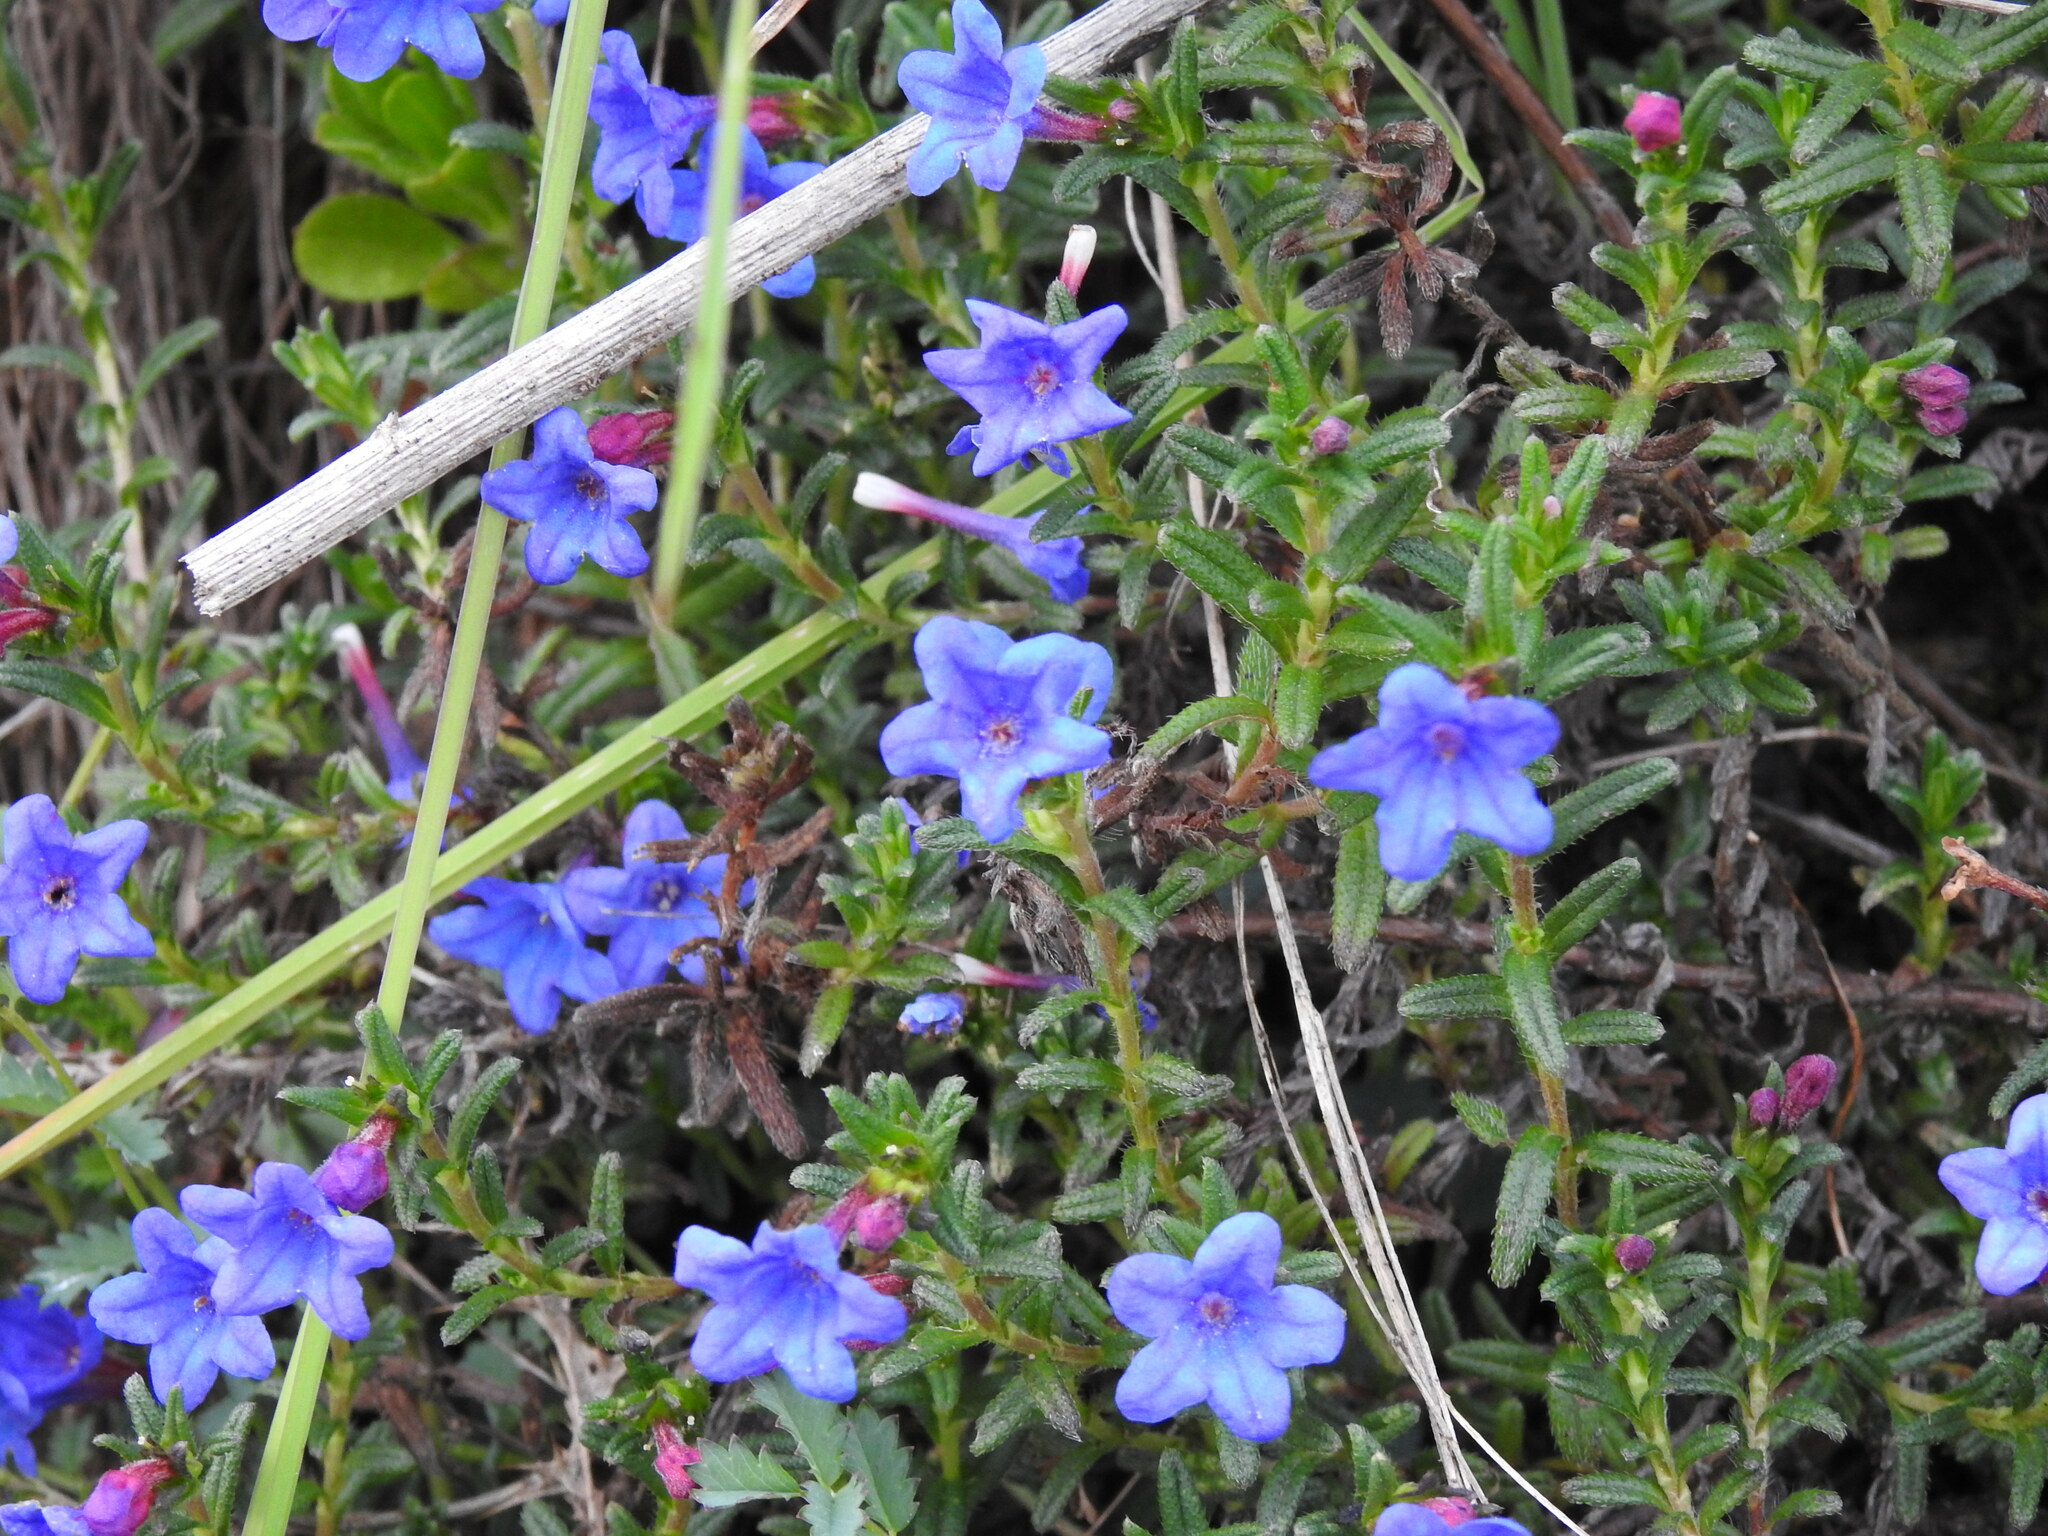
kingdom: Plantae
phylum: Tracheophyta
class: Magnoliopsida
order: Boraginales
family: Boraginaceae
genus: Glandora
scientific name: Glandora prostrata
